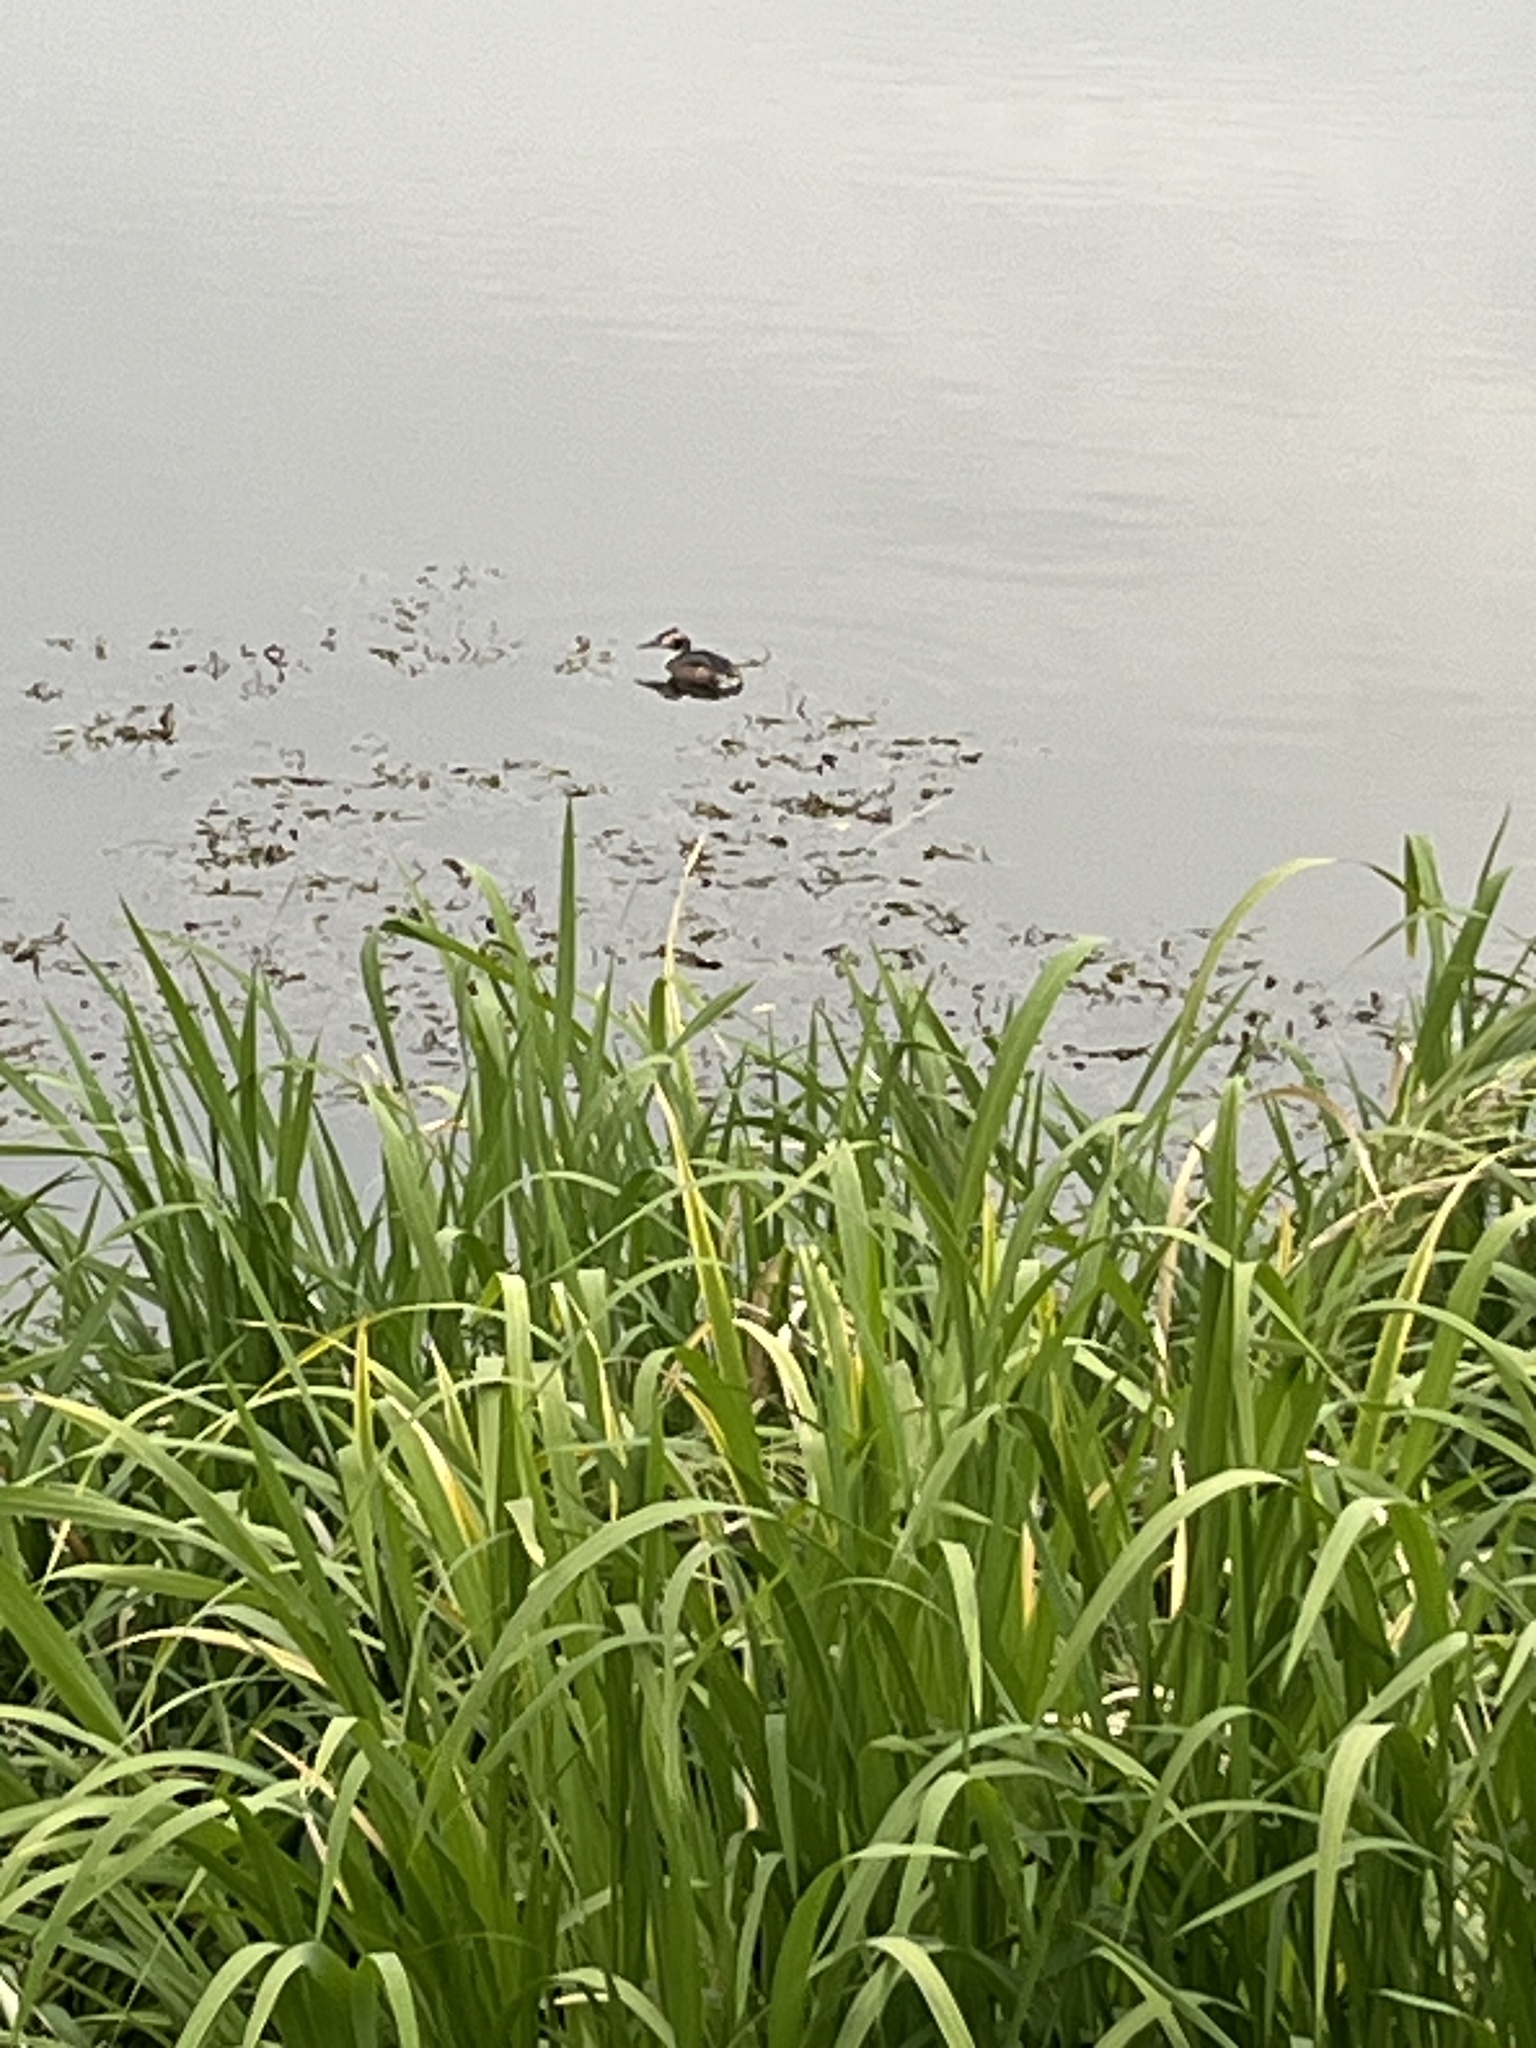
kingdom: Animalia
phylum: Chordata
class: Aves
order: Podicipediformes
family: Podicipedidae
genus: Podiceps
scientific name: Podiceps cristatus
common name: Great crested grebe
